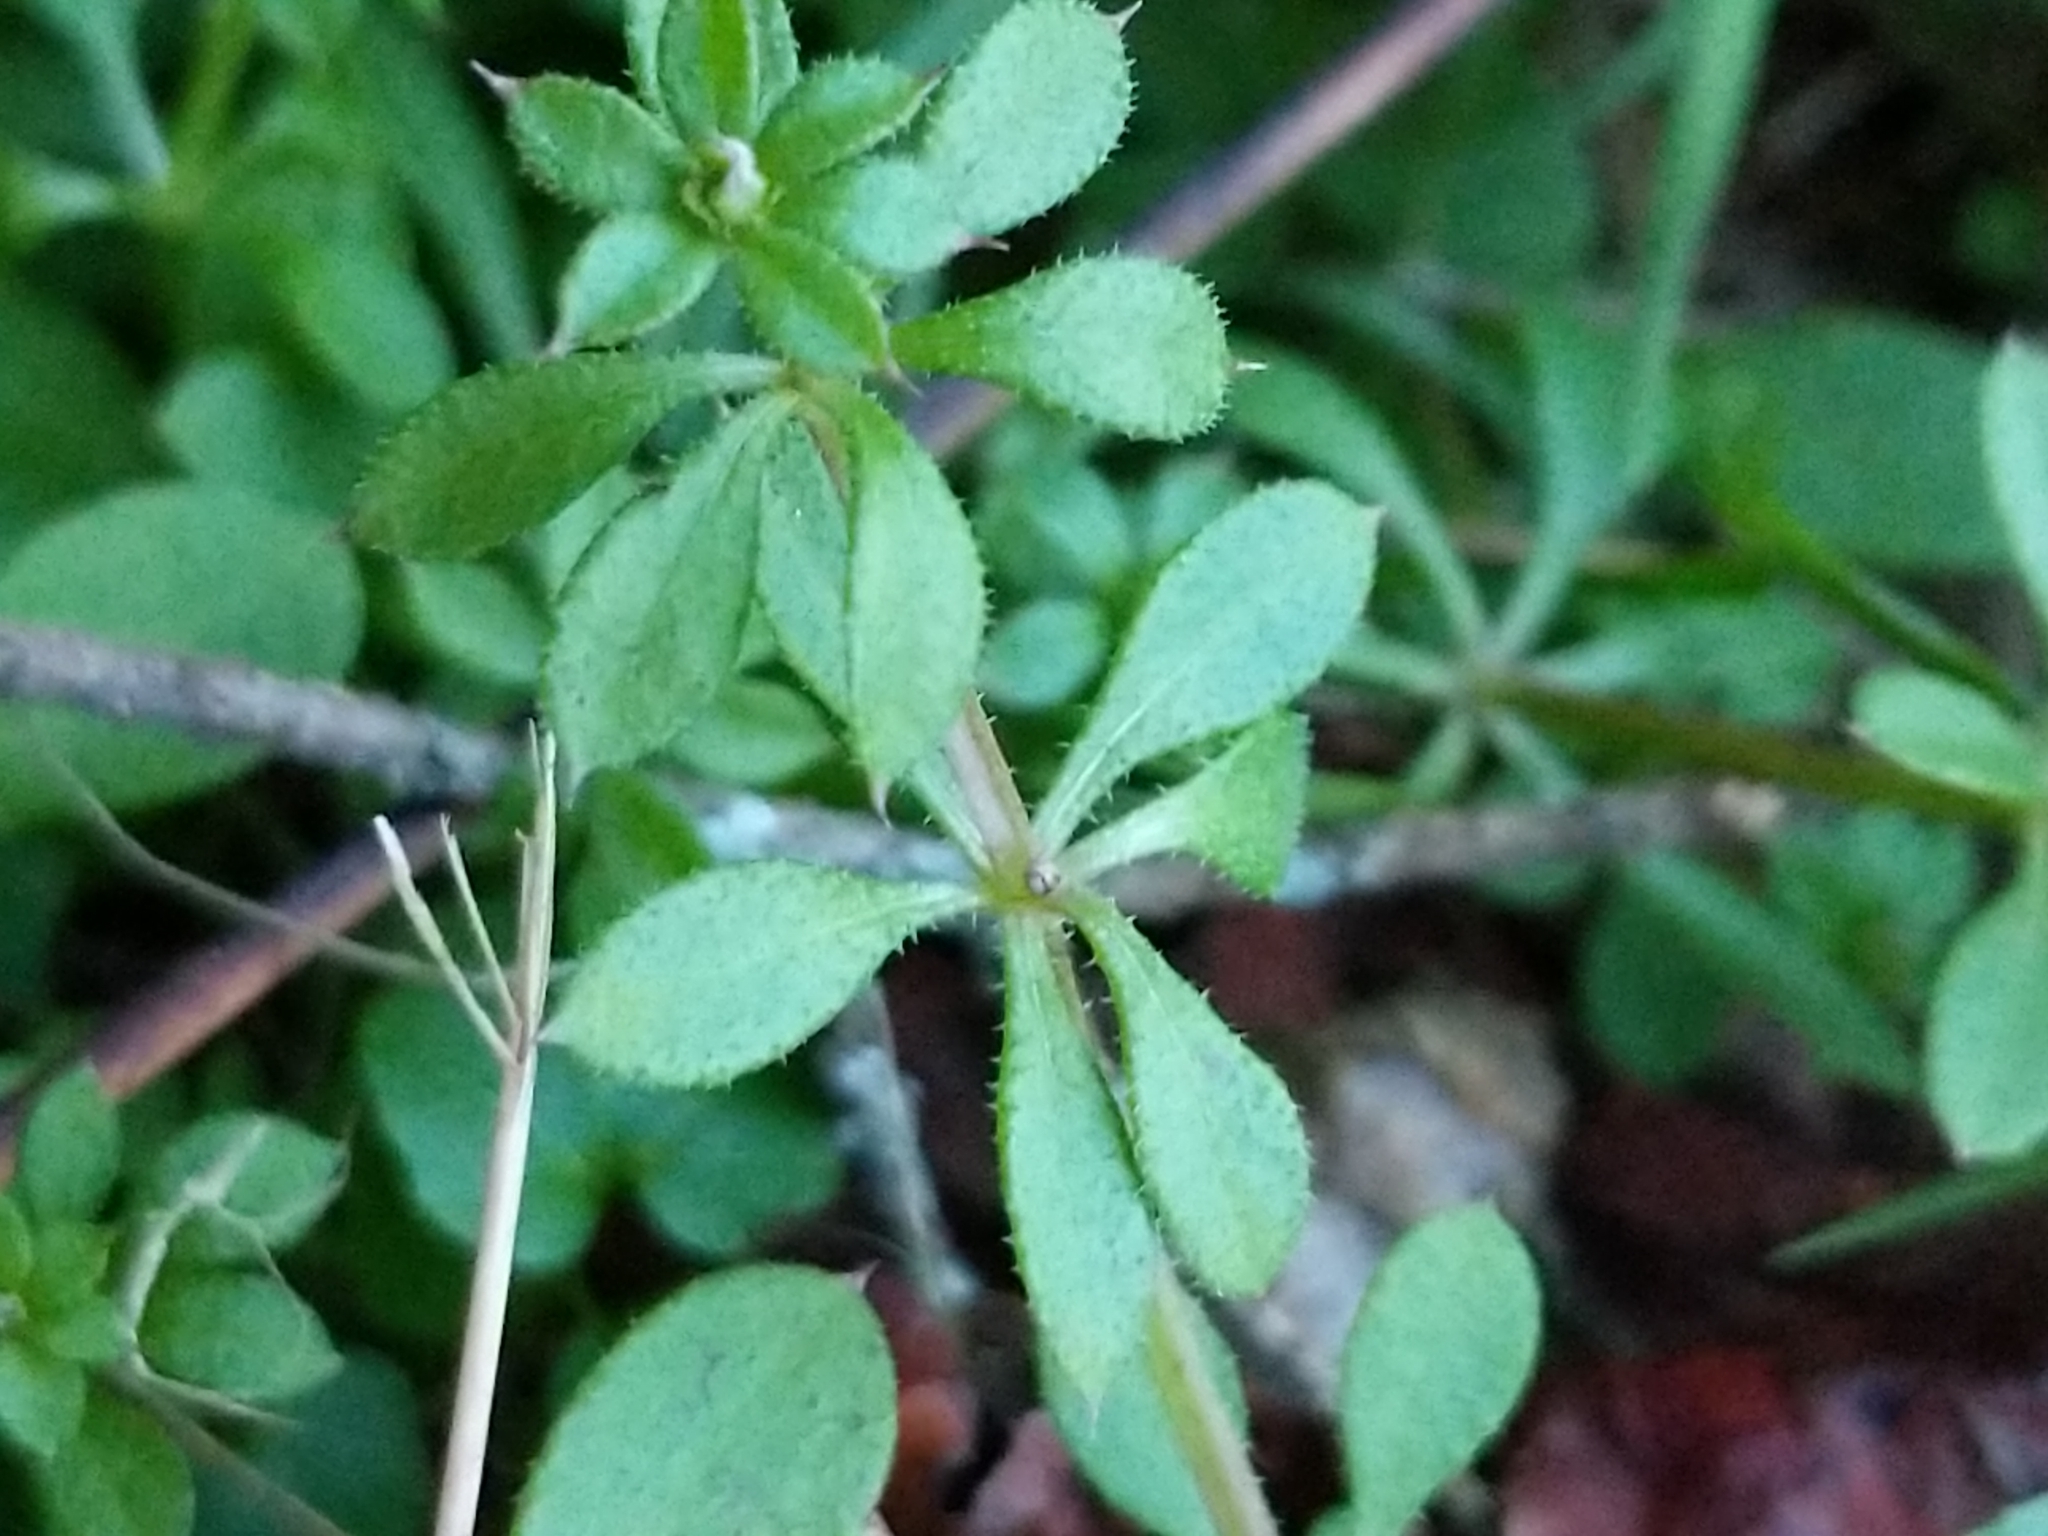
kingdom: Plantae
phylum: Tracheophyta
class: Magnoliopsida
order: Gentianales
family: Rubiaceae
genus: Galium
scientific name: Galium aparine
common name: Cleavers
